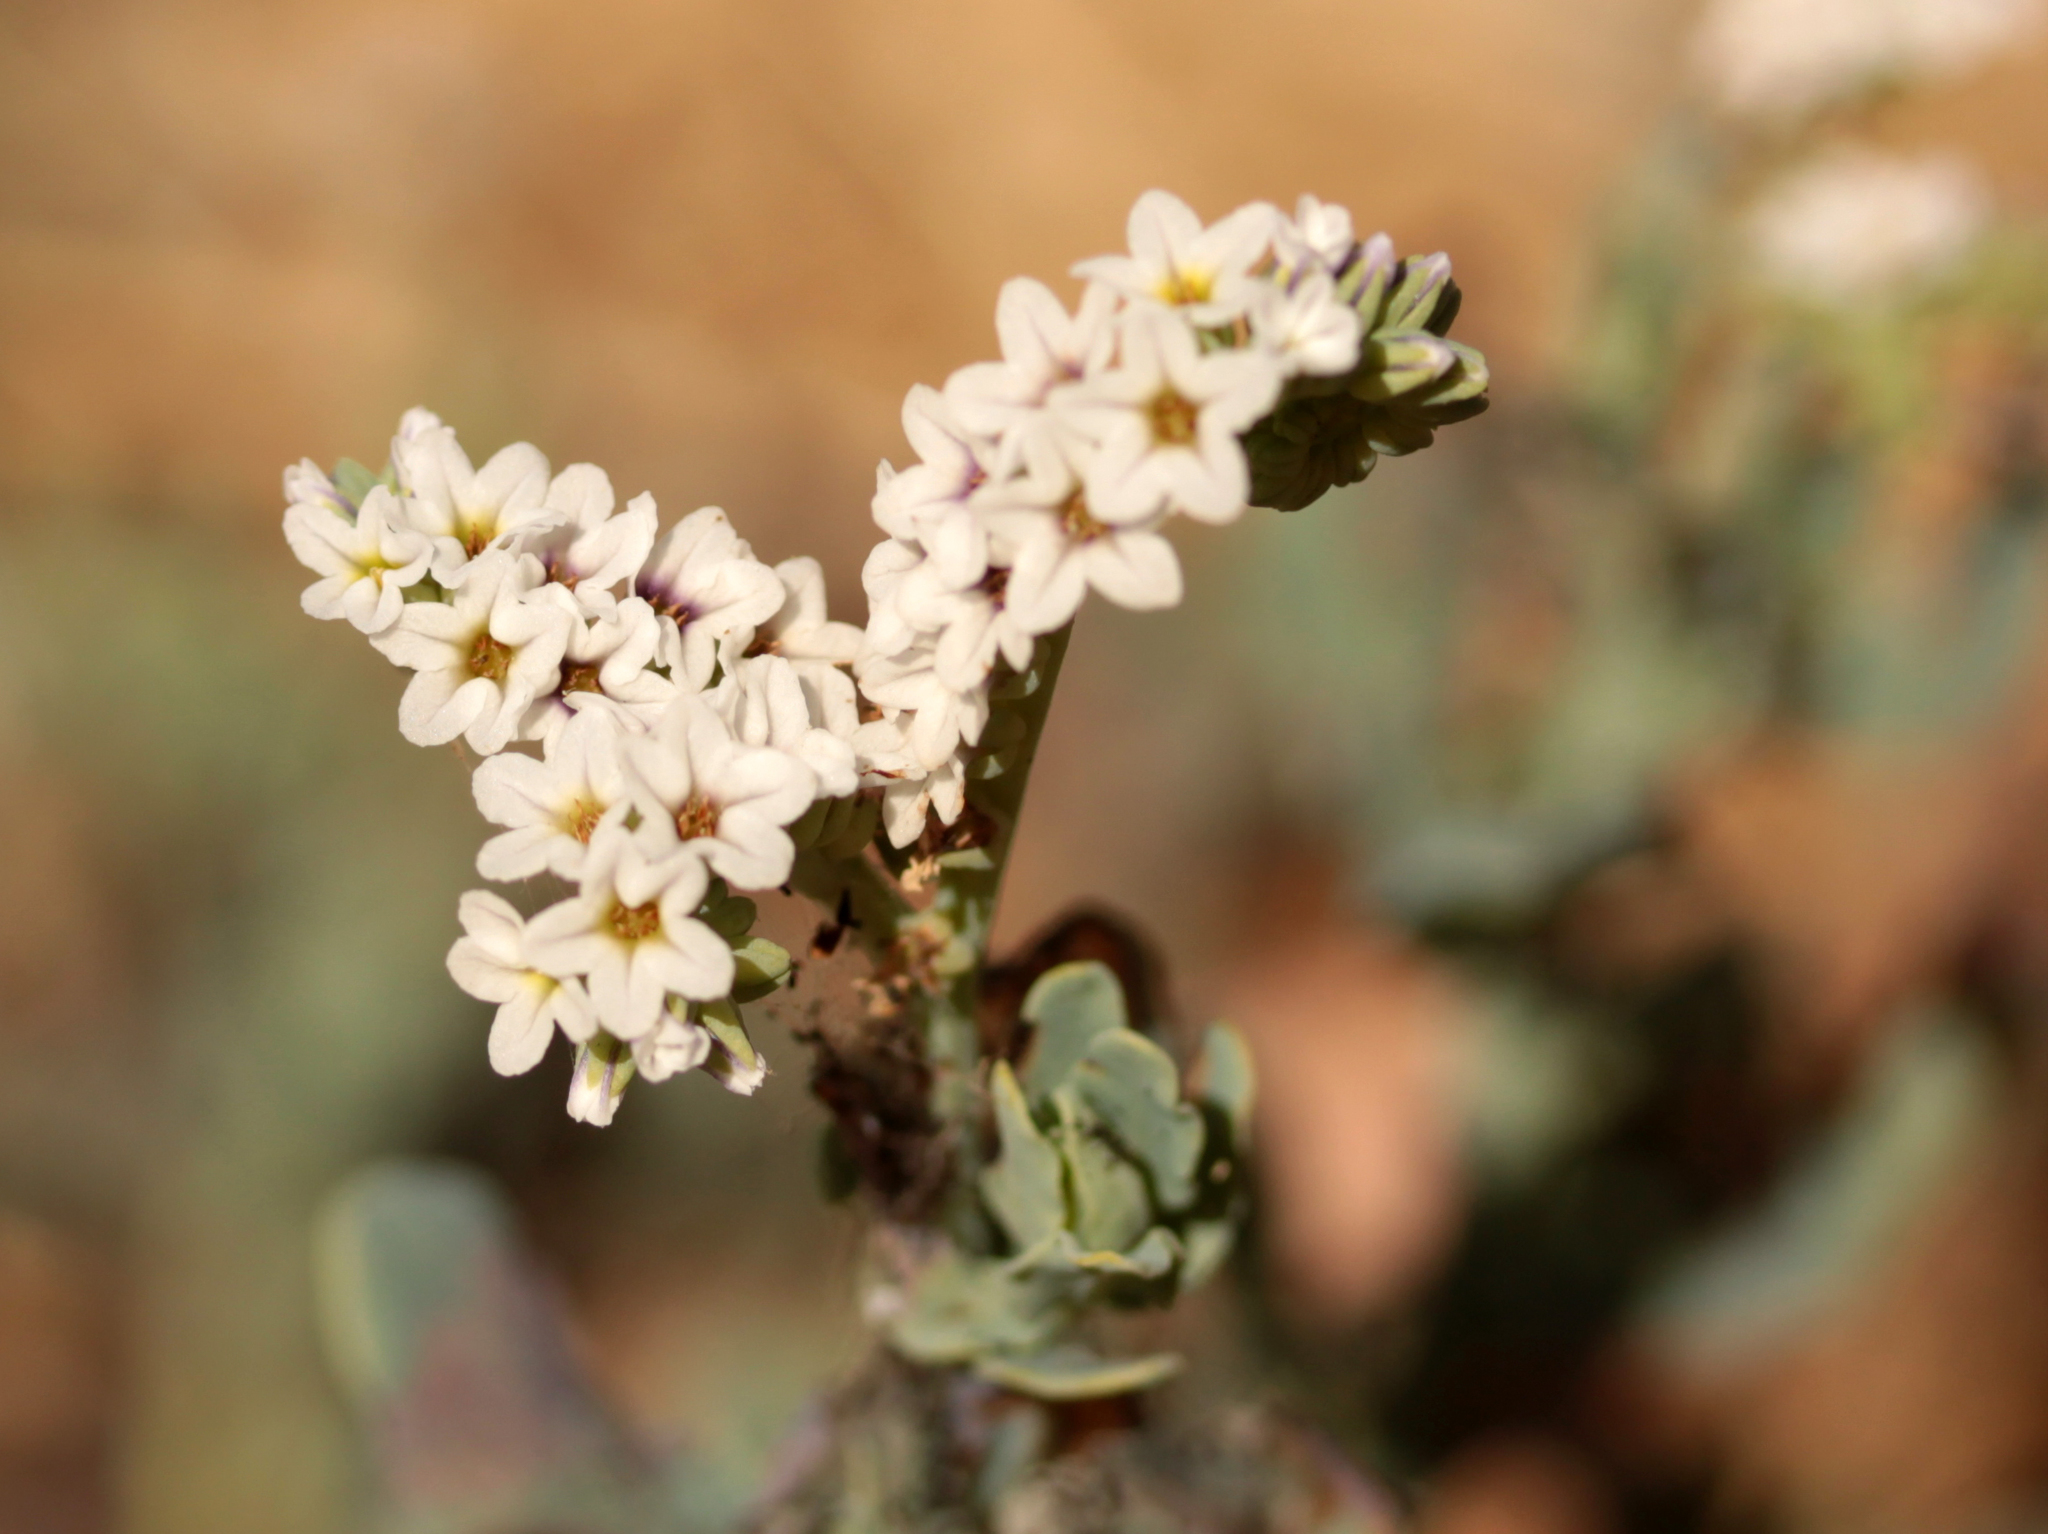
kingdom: Plantae
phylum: Tracheophyta
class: Magnoliopsida
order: Boraginales
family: Heliotropiaceae
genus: Heliotropium
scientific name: Heliotropium curassavicum
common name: Seaside heliotrope
